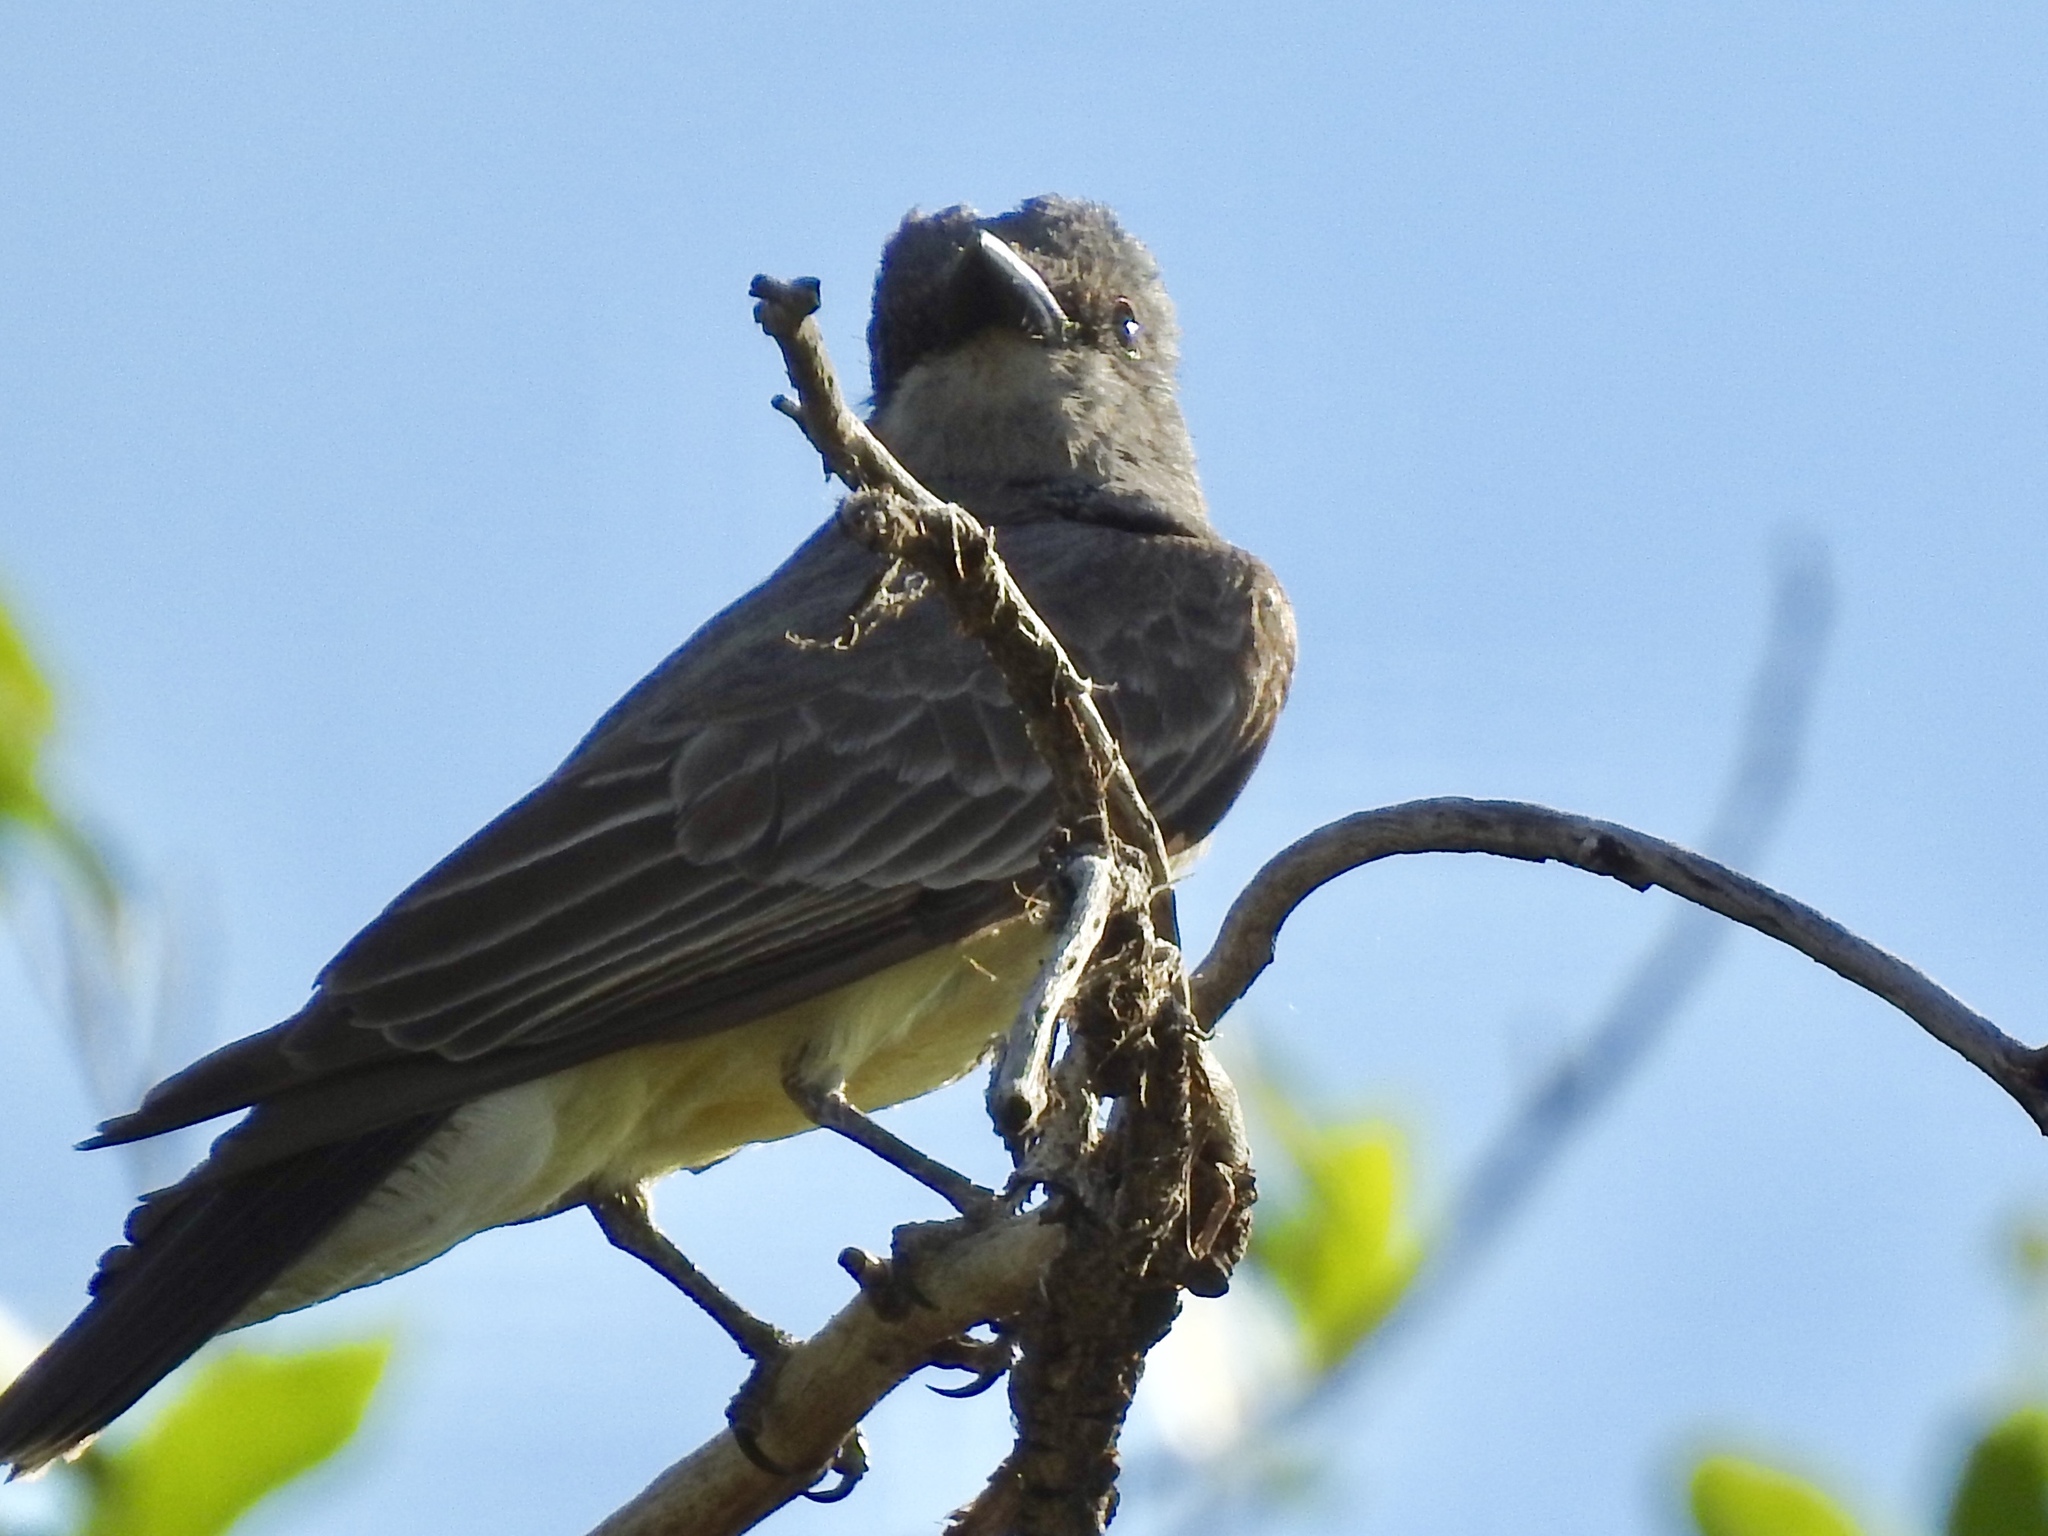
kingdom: Animalia
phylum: Chordata
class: Aves
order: Passeriformes
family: Tyrannidae
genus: Tyrannus
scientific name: Tyrannus verticalis
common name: Western kingbird
